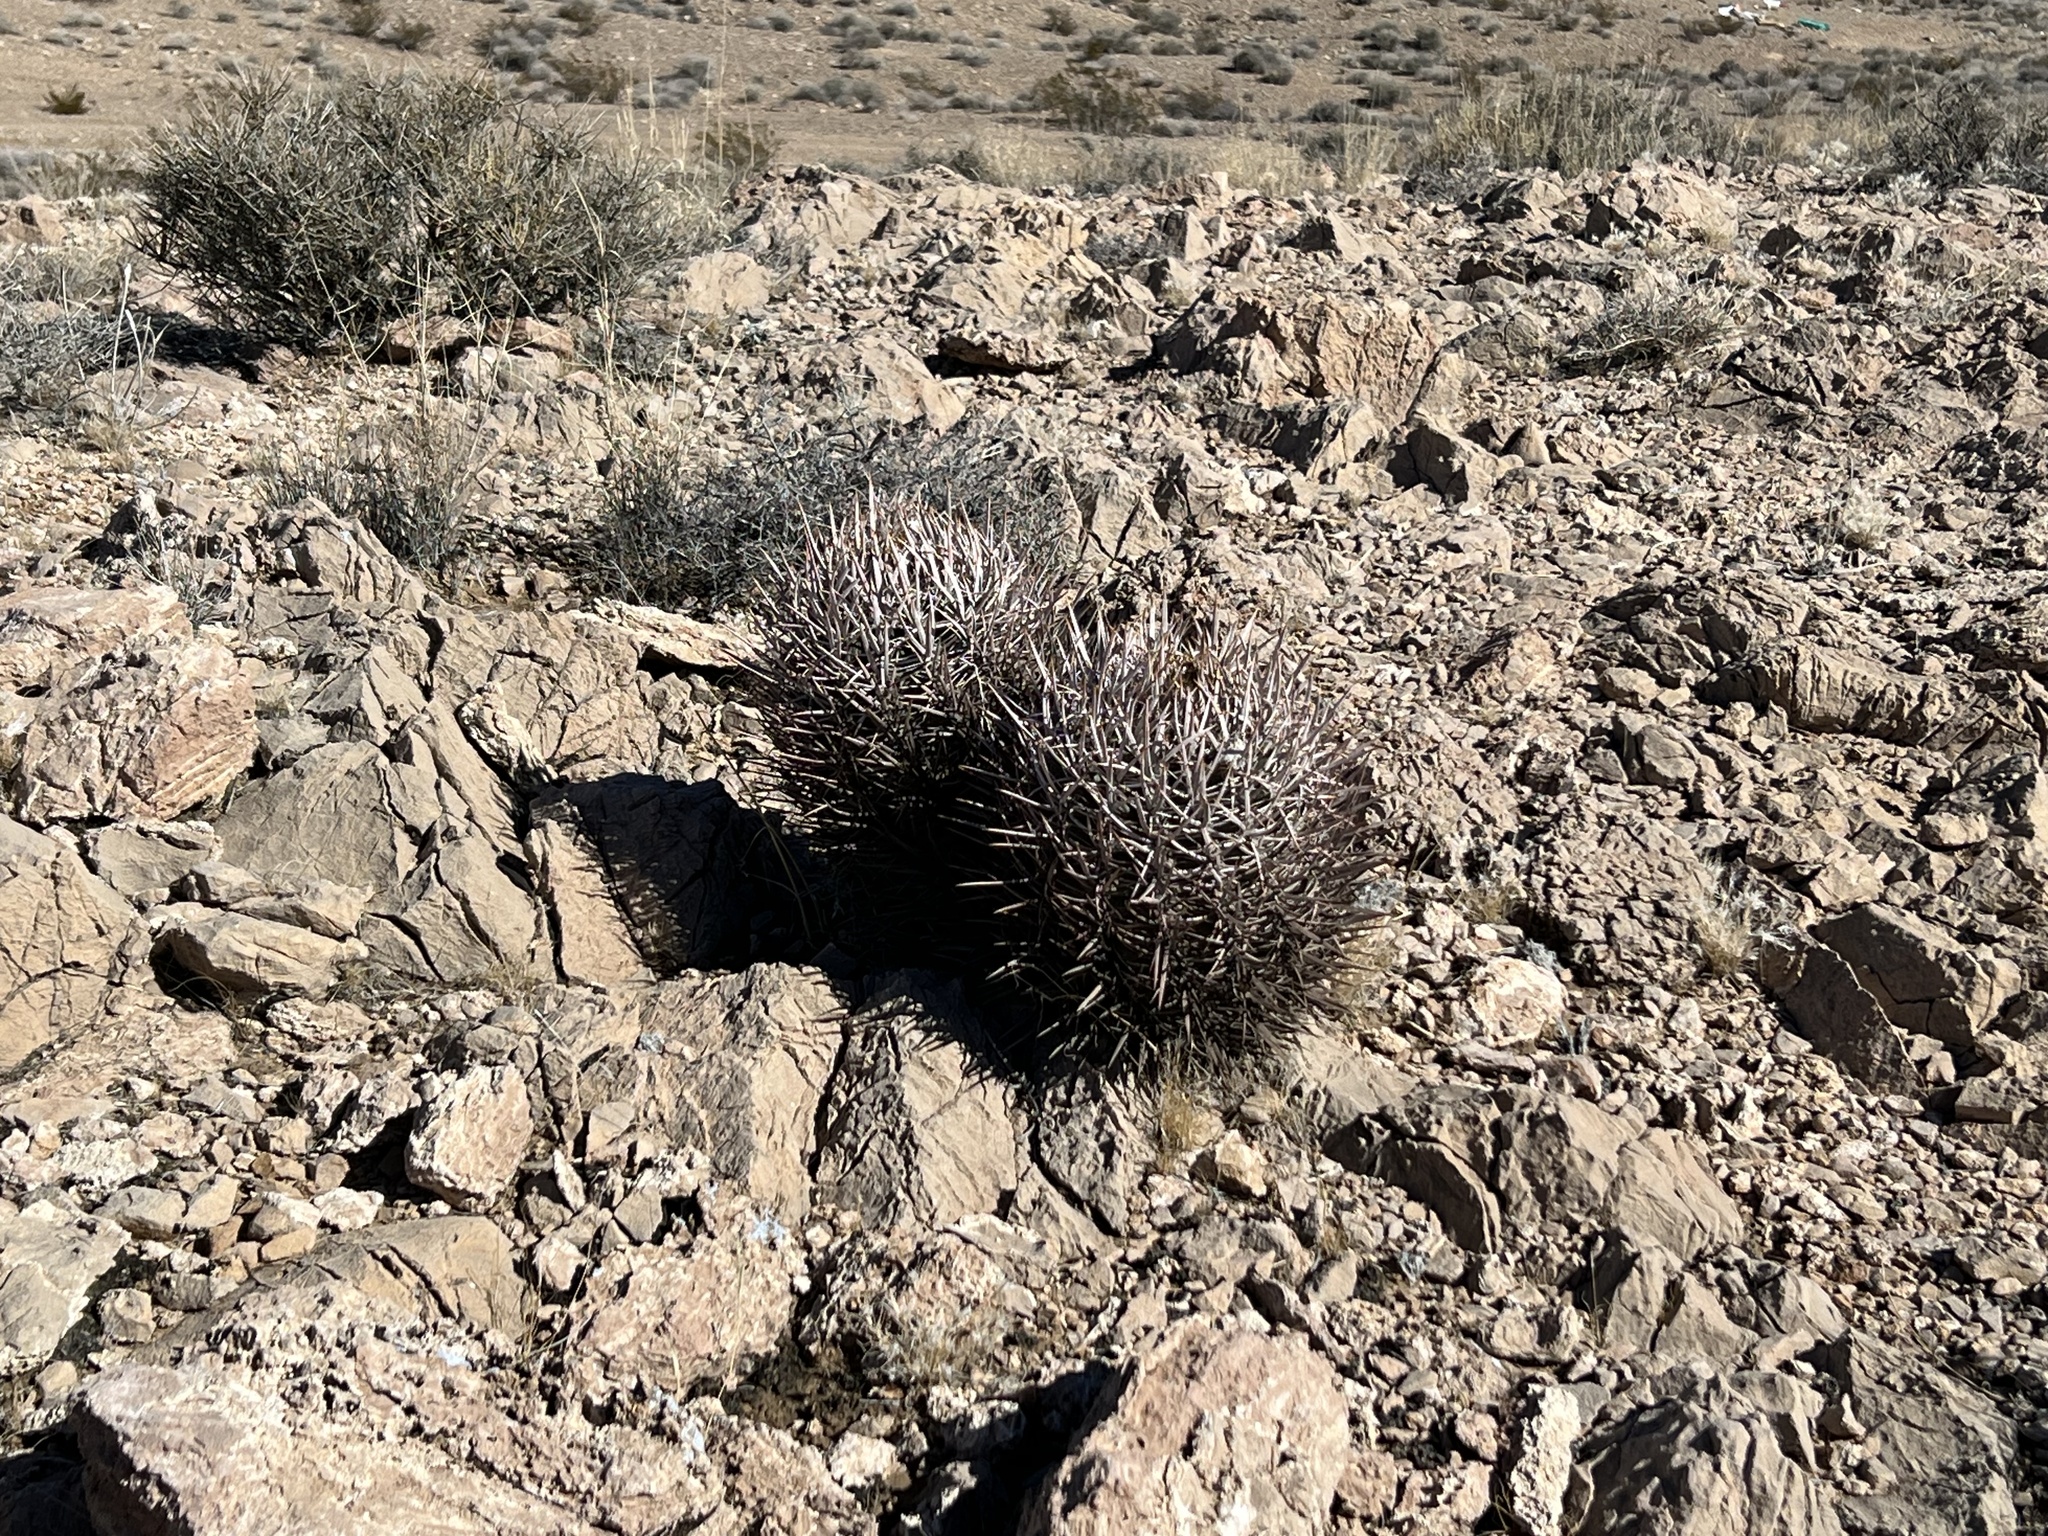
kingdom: Plantae
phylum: Tracheophyta
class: Magnoliopsida
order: Caryophyllales
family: Cactaceae
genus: Echinocactus
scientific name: Echinocactus polycephalus
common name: Cottontop cactus
